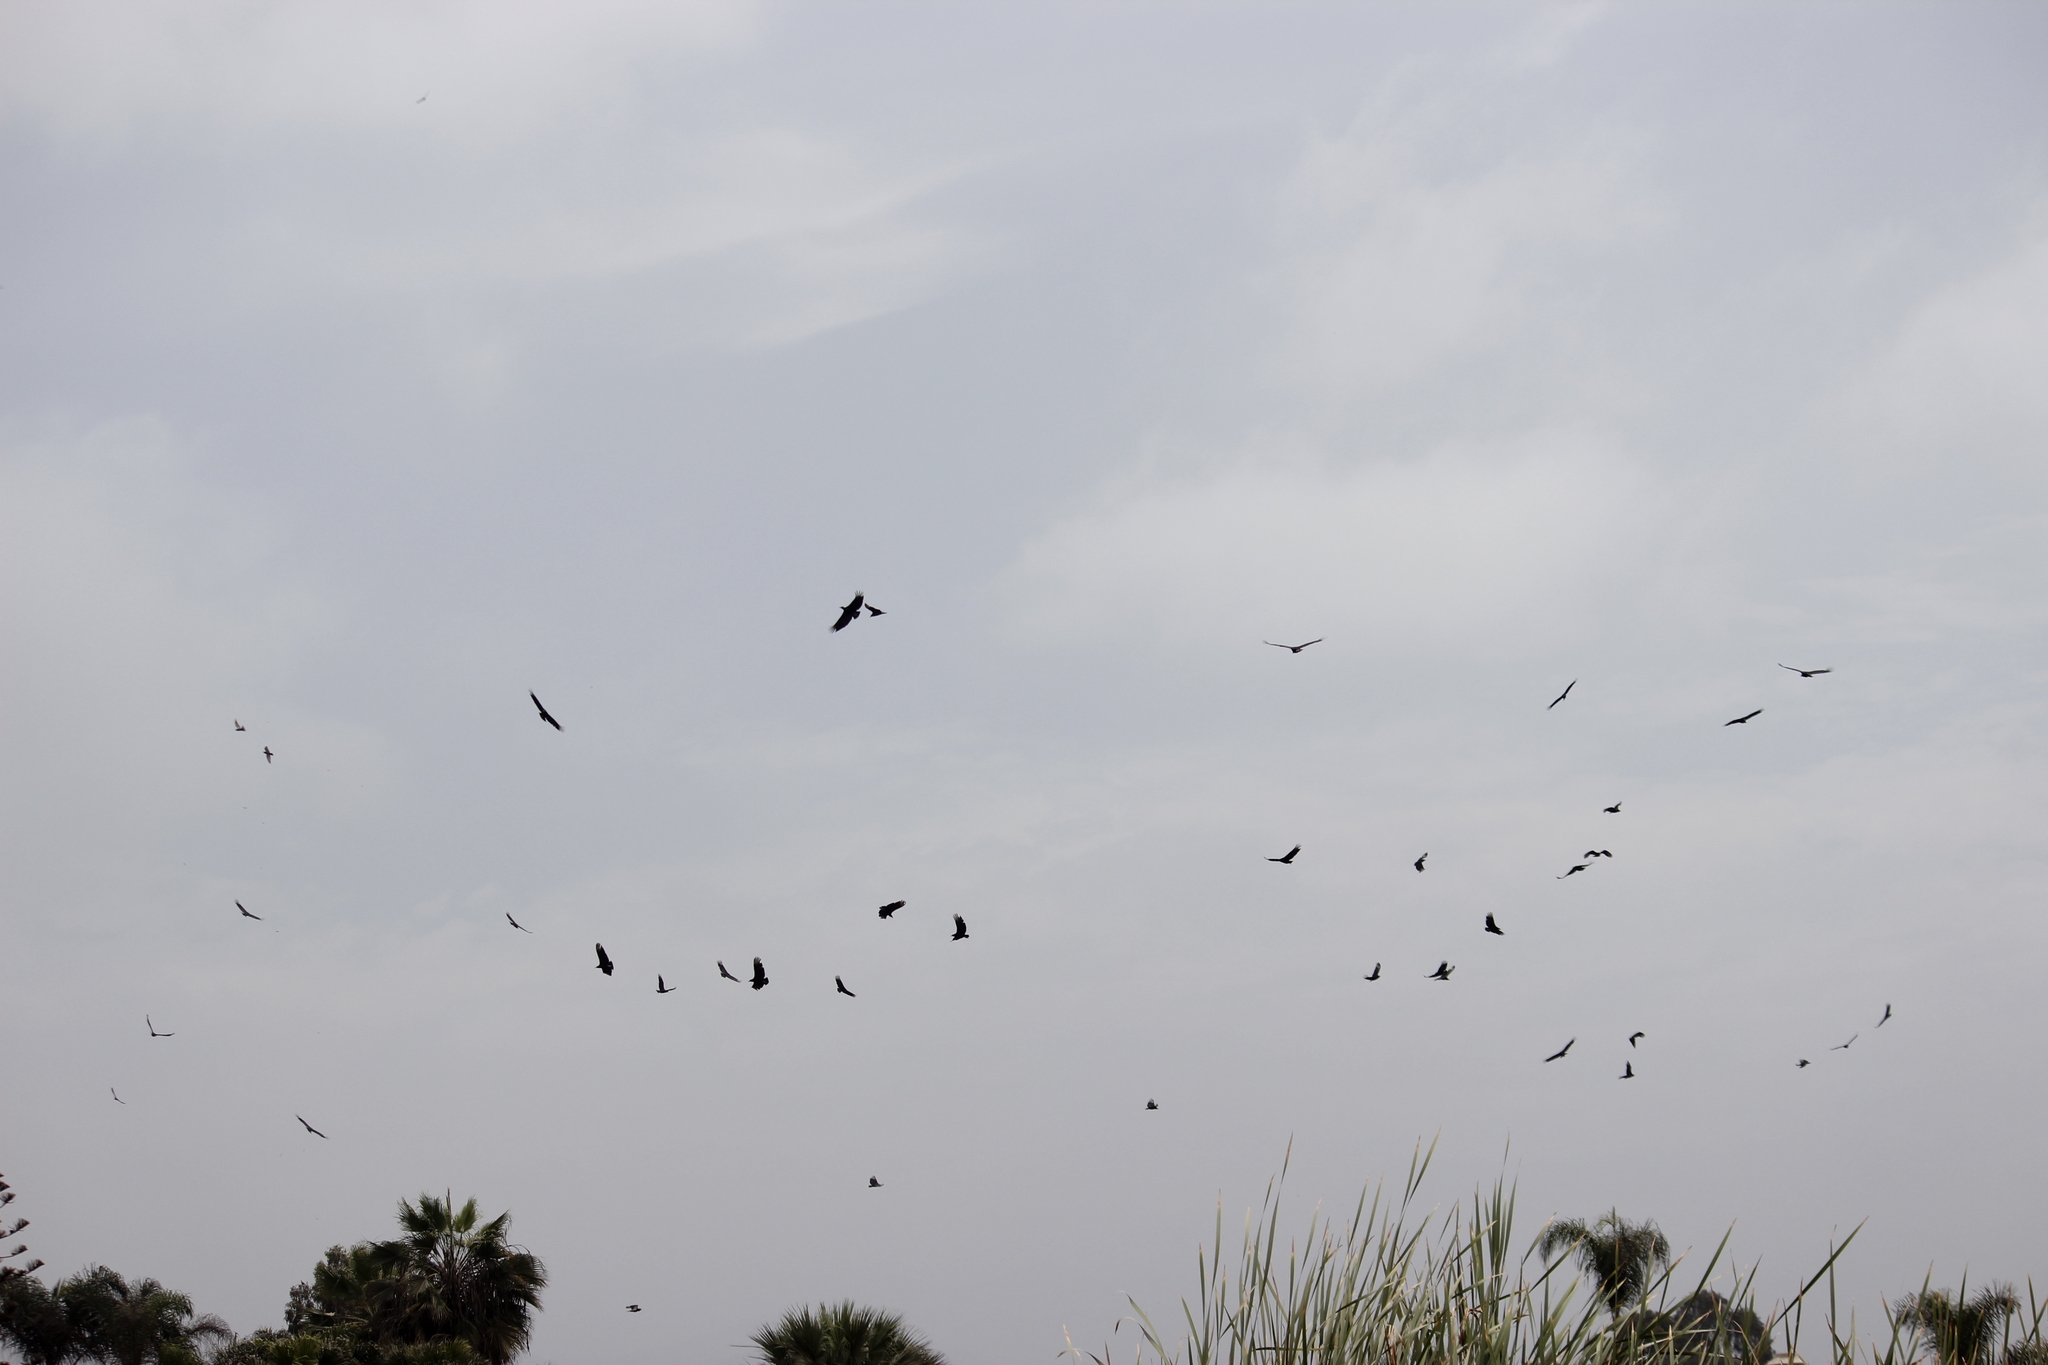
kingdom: Animalia
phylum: Chordata
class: Aves
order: Accipitriformes
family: Cathartidae
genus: Coragyps
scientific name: Coragyps atratus
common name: Black vulture
